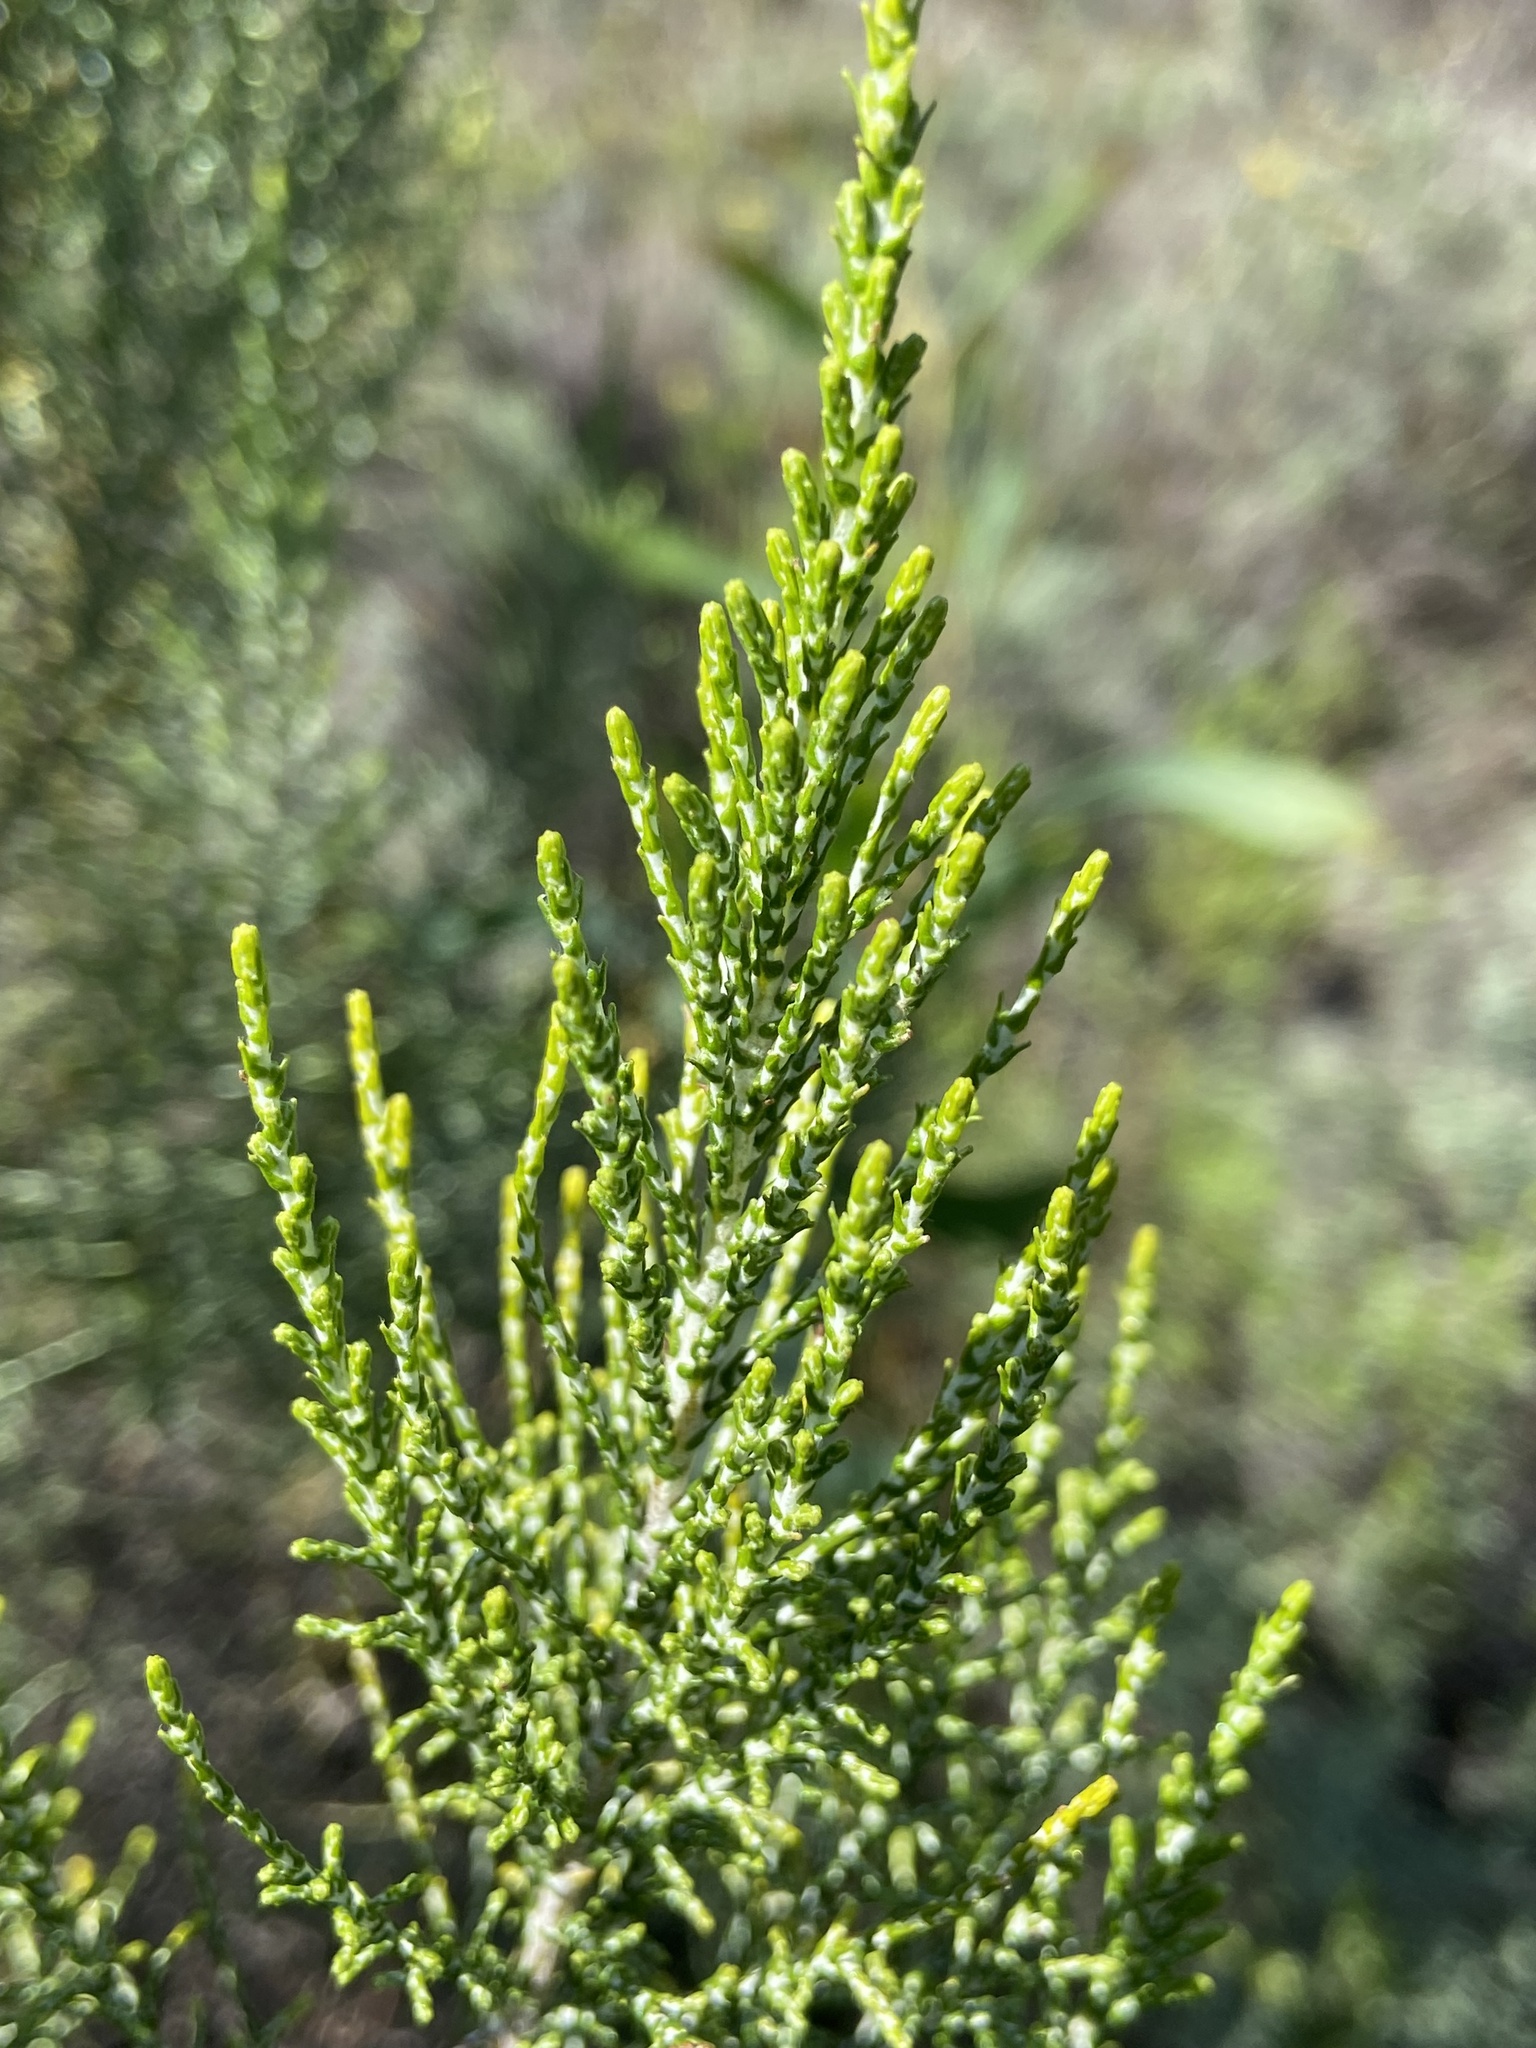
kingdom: Plantae
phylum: Tracheophyta
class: Magnoliopsida
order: Asterales
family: Asteraceae
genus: Dicerothamnus
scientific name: Dicerothamnus rhinocerotis
